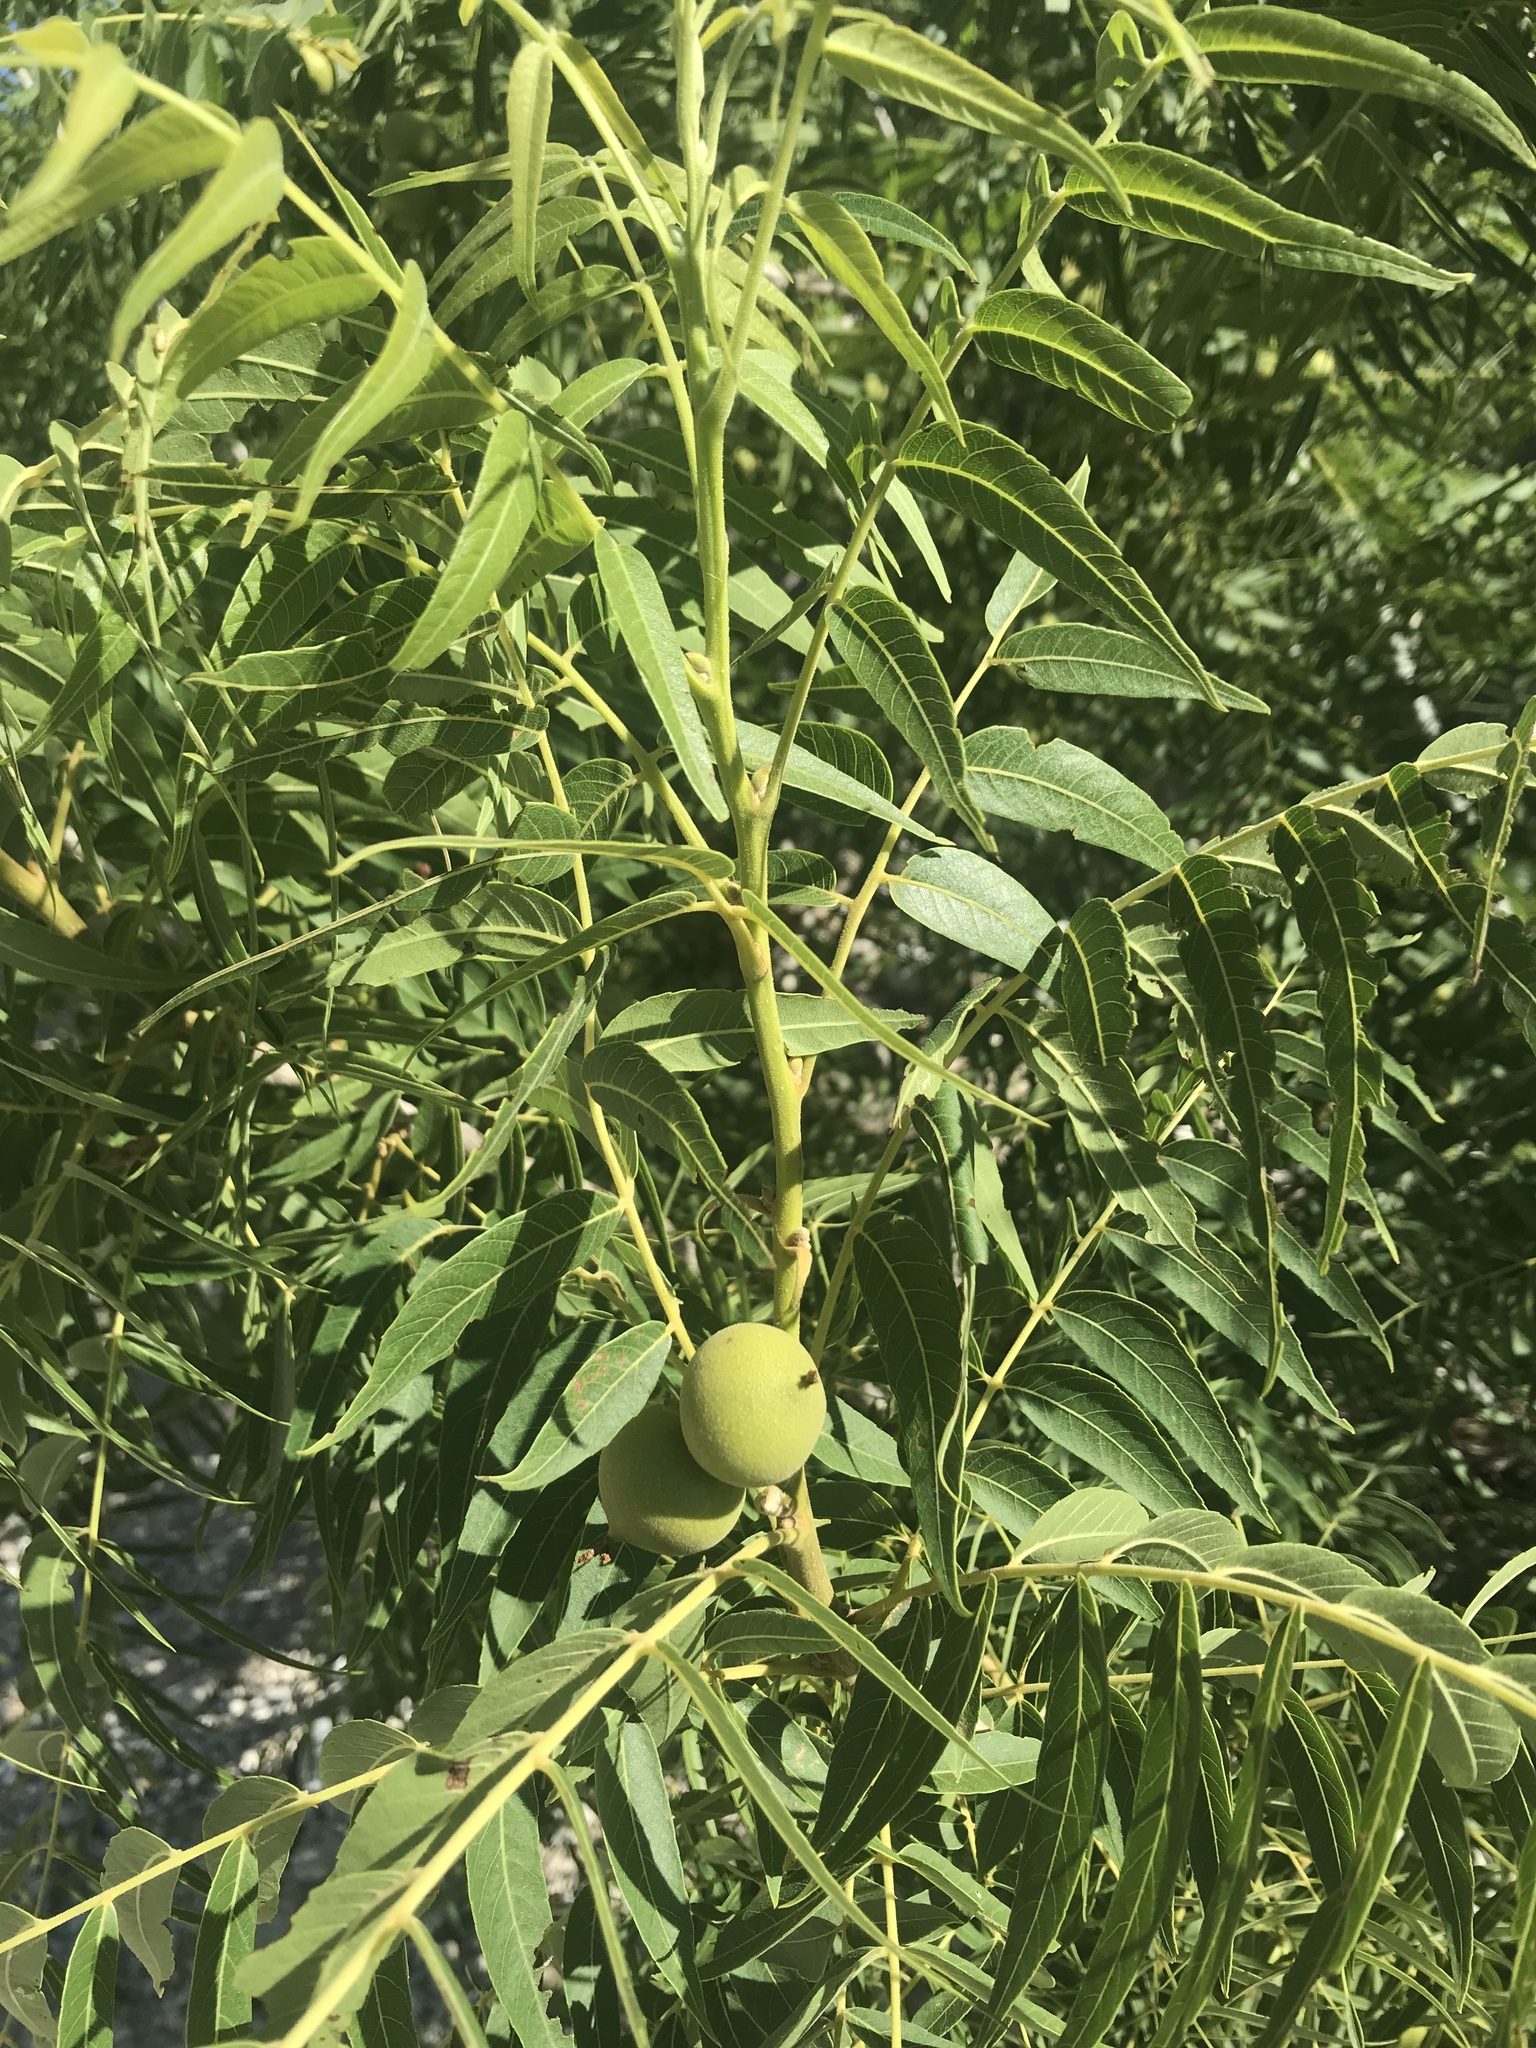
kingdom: Plantae
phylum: Tracheophyta
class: Magnoliopsida
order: Fagales
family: Juglandaceae
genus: Juglans
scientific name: Juglans microcarpa
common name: Texas walnut
